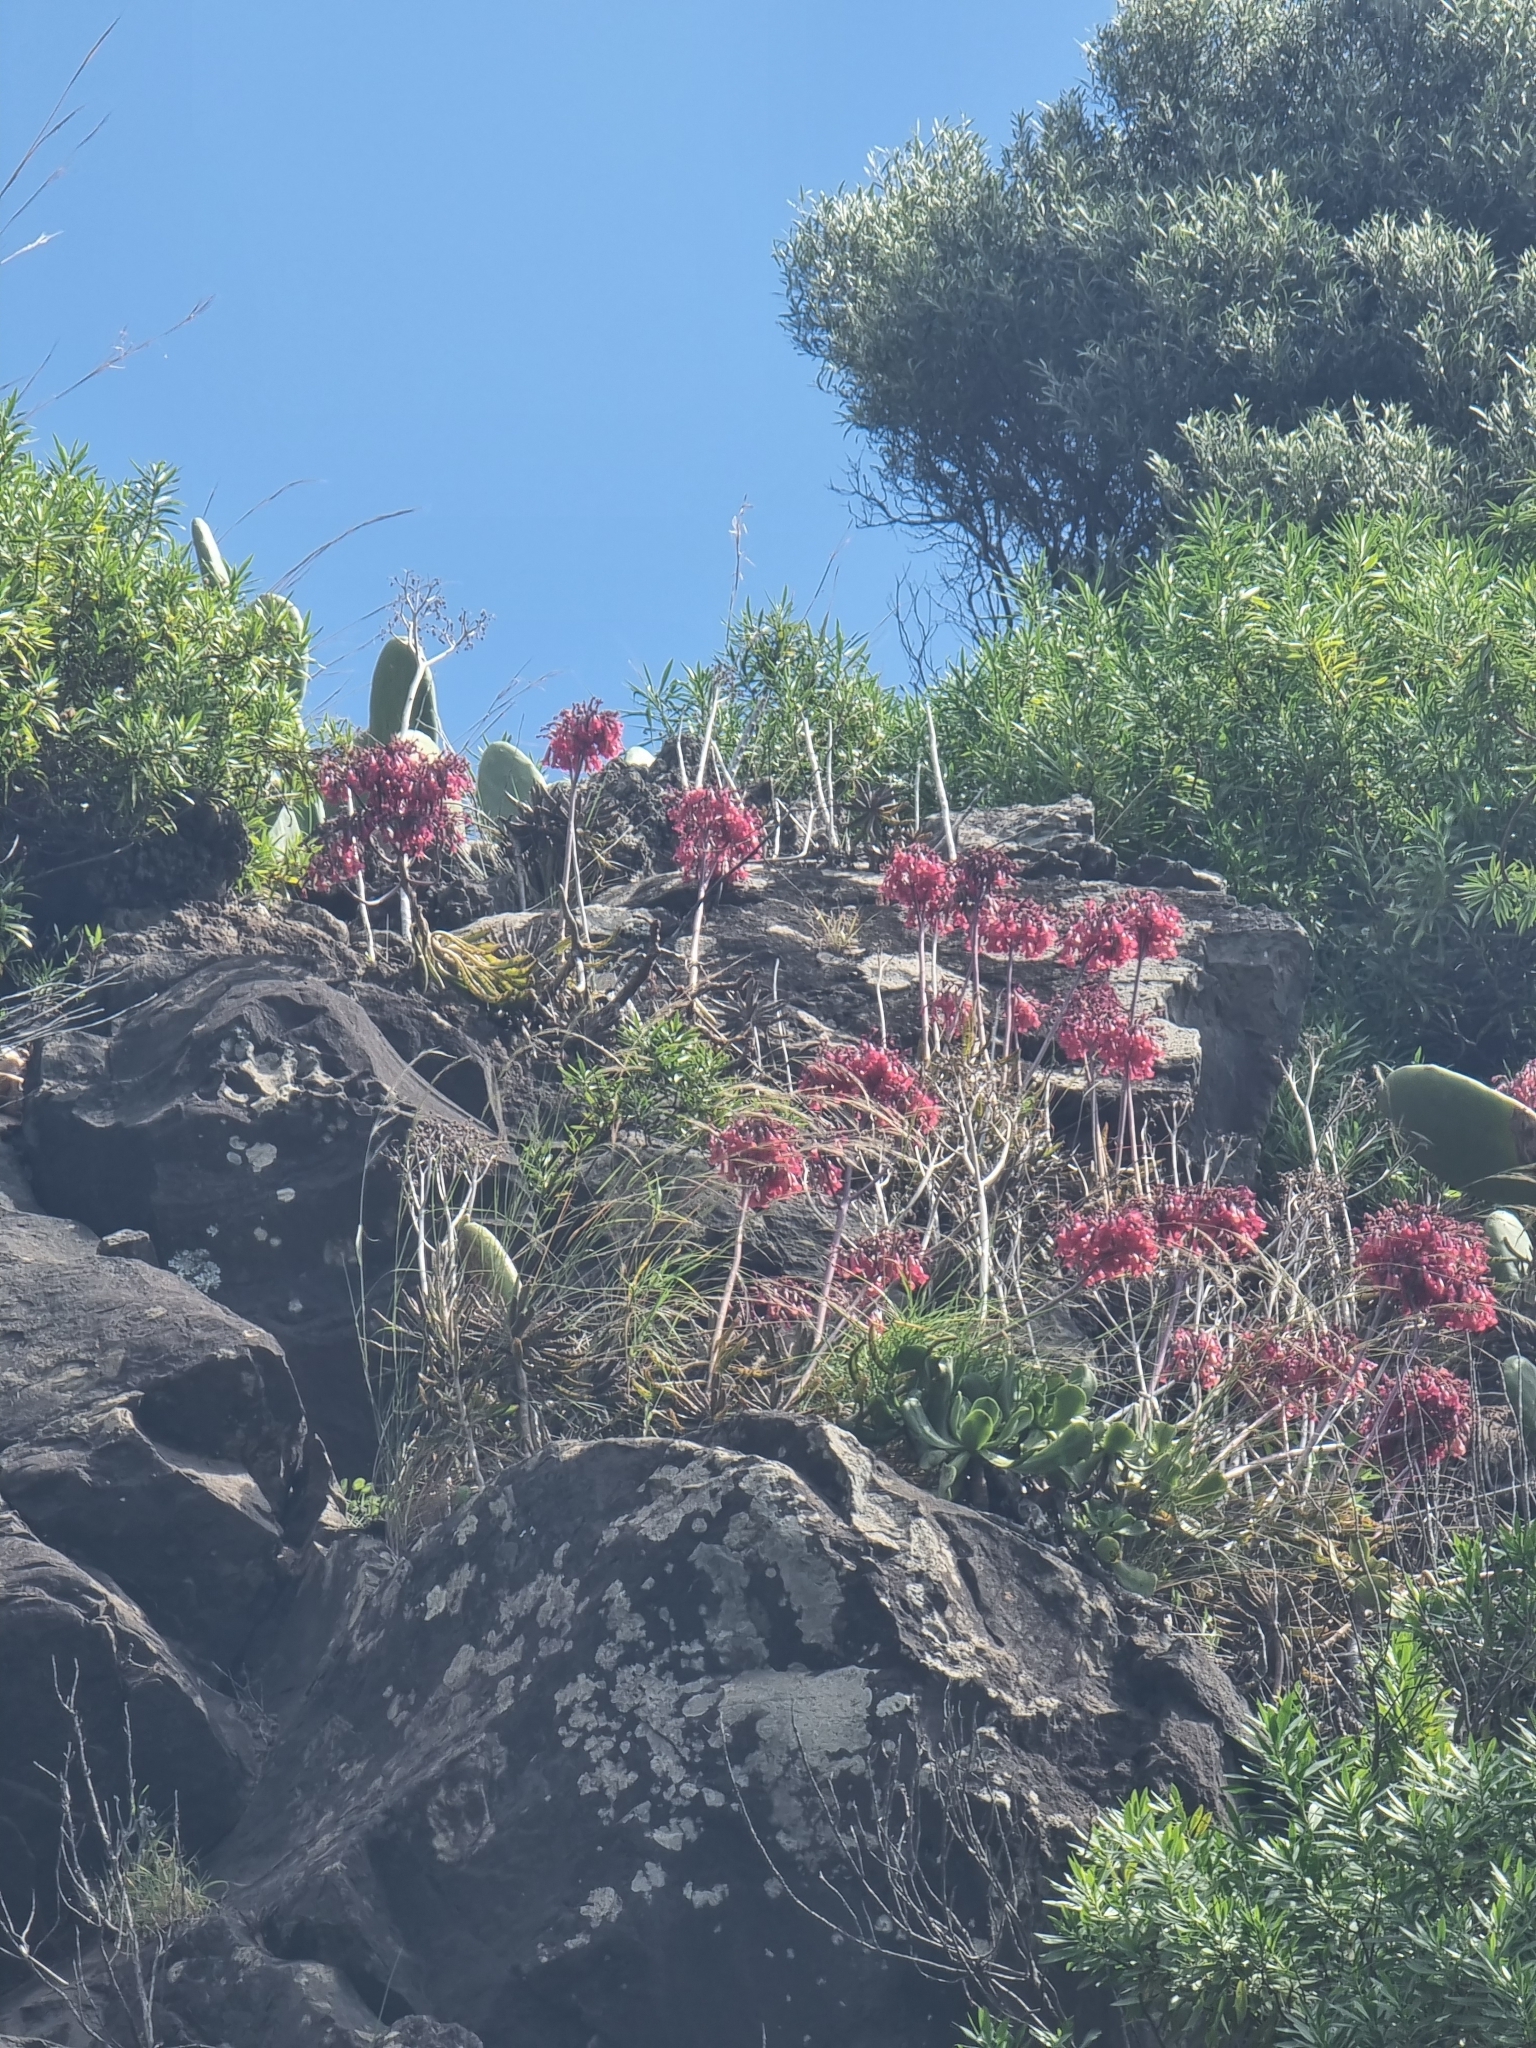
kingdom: Plantae
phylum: Tracheophyta
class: Magnoliopsida
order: Saxifragales
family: Crassulaceae
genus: Kalanchoe
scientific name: Kalanchoe houghtonii
